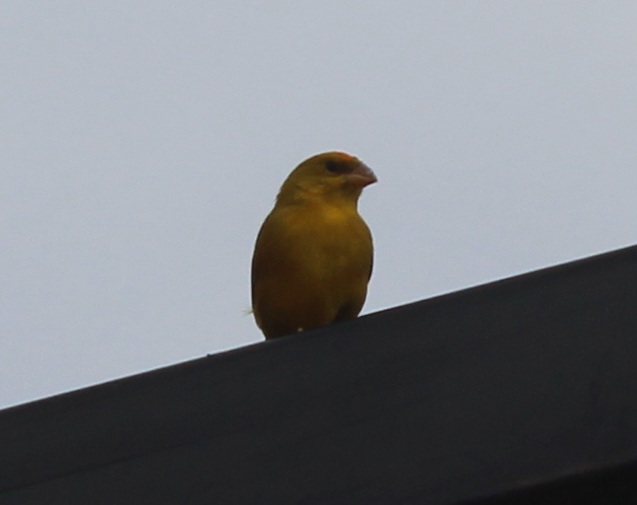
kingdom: Animalia
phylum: Chordata
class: Aves
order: Passeriformes
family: Thraupidae
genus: Sicalis
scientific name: Sicalis columbiana
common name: Orange-fronted yellow-finch
